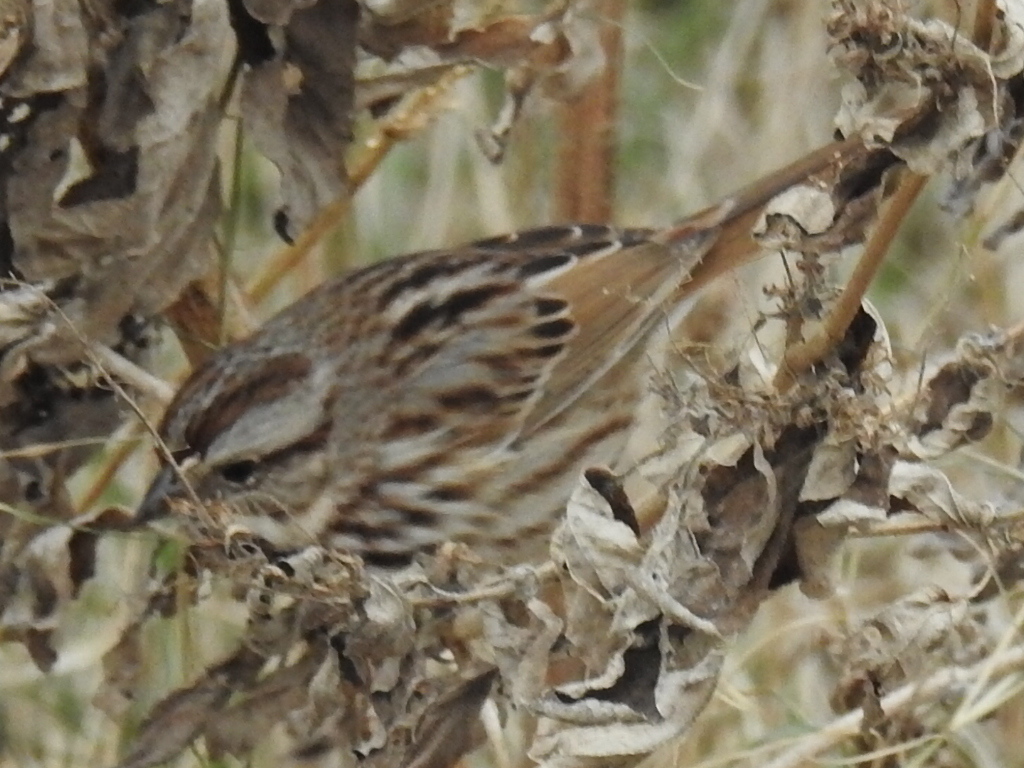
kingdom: Animalia
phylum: Chordata
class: Aves
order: Passeriformes
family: Passerellidae
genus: Melospiza
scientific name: Melospiza melodia
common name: Song sparrow
